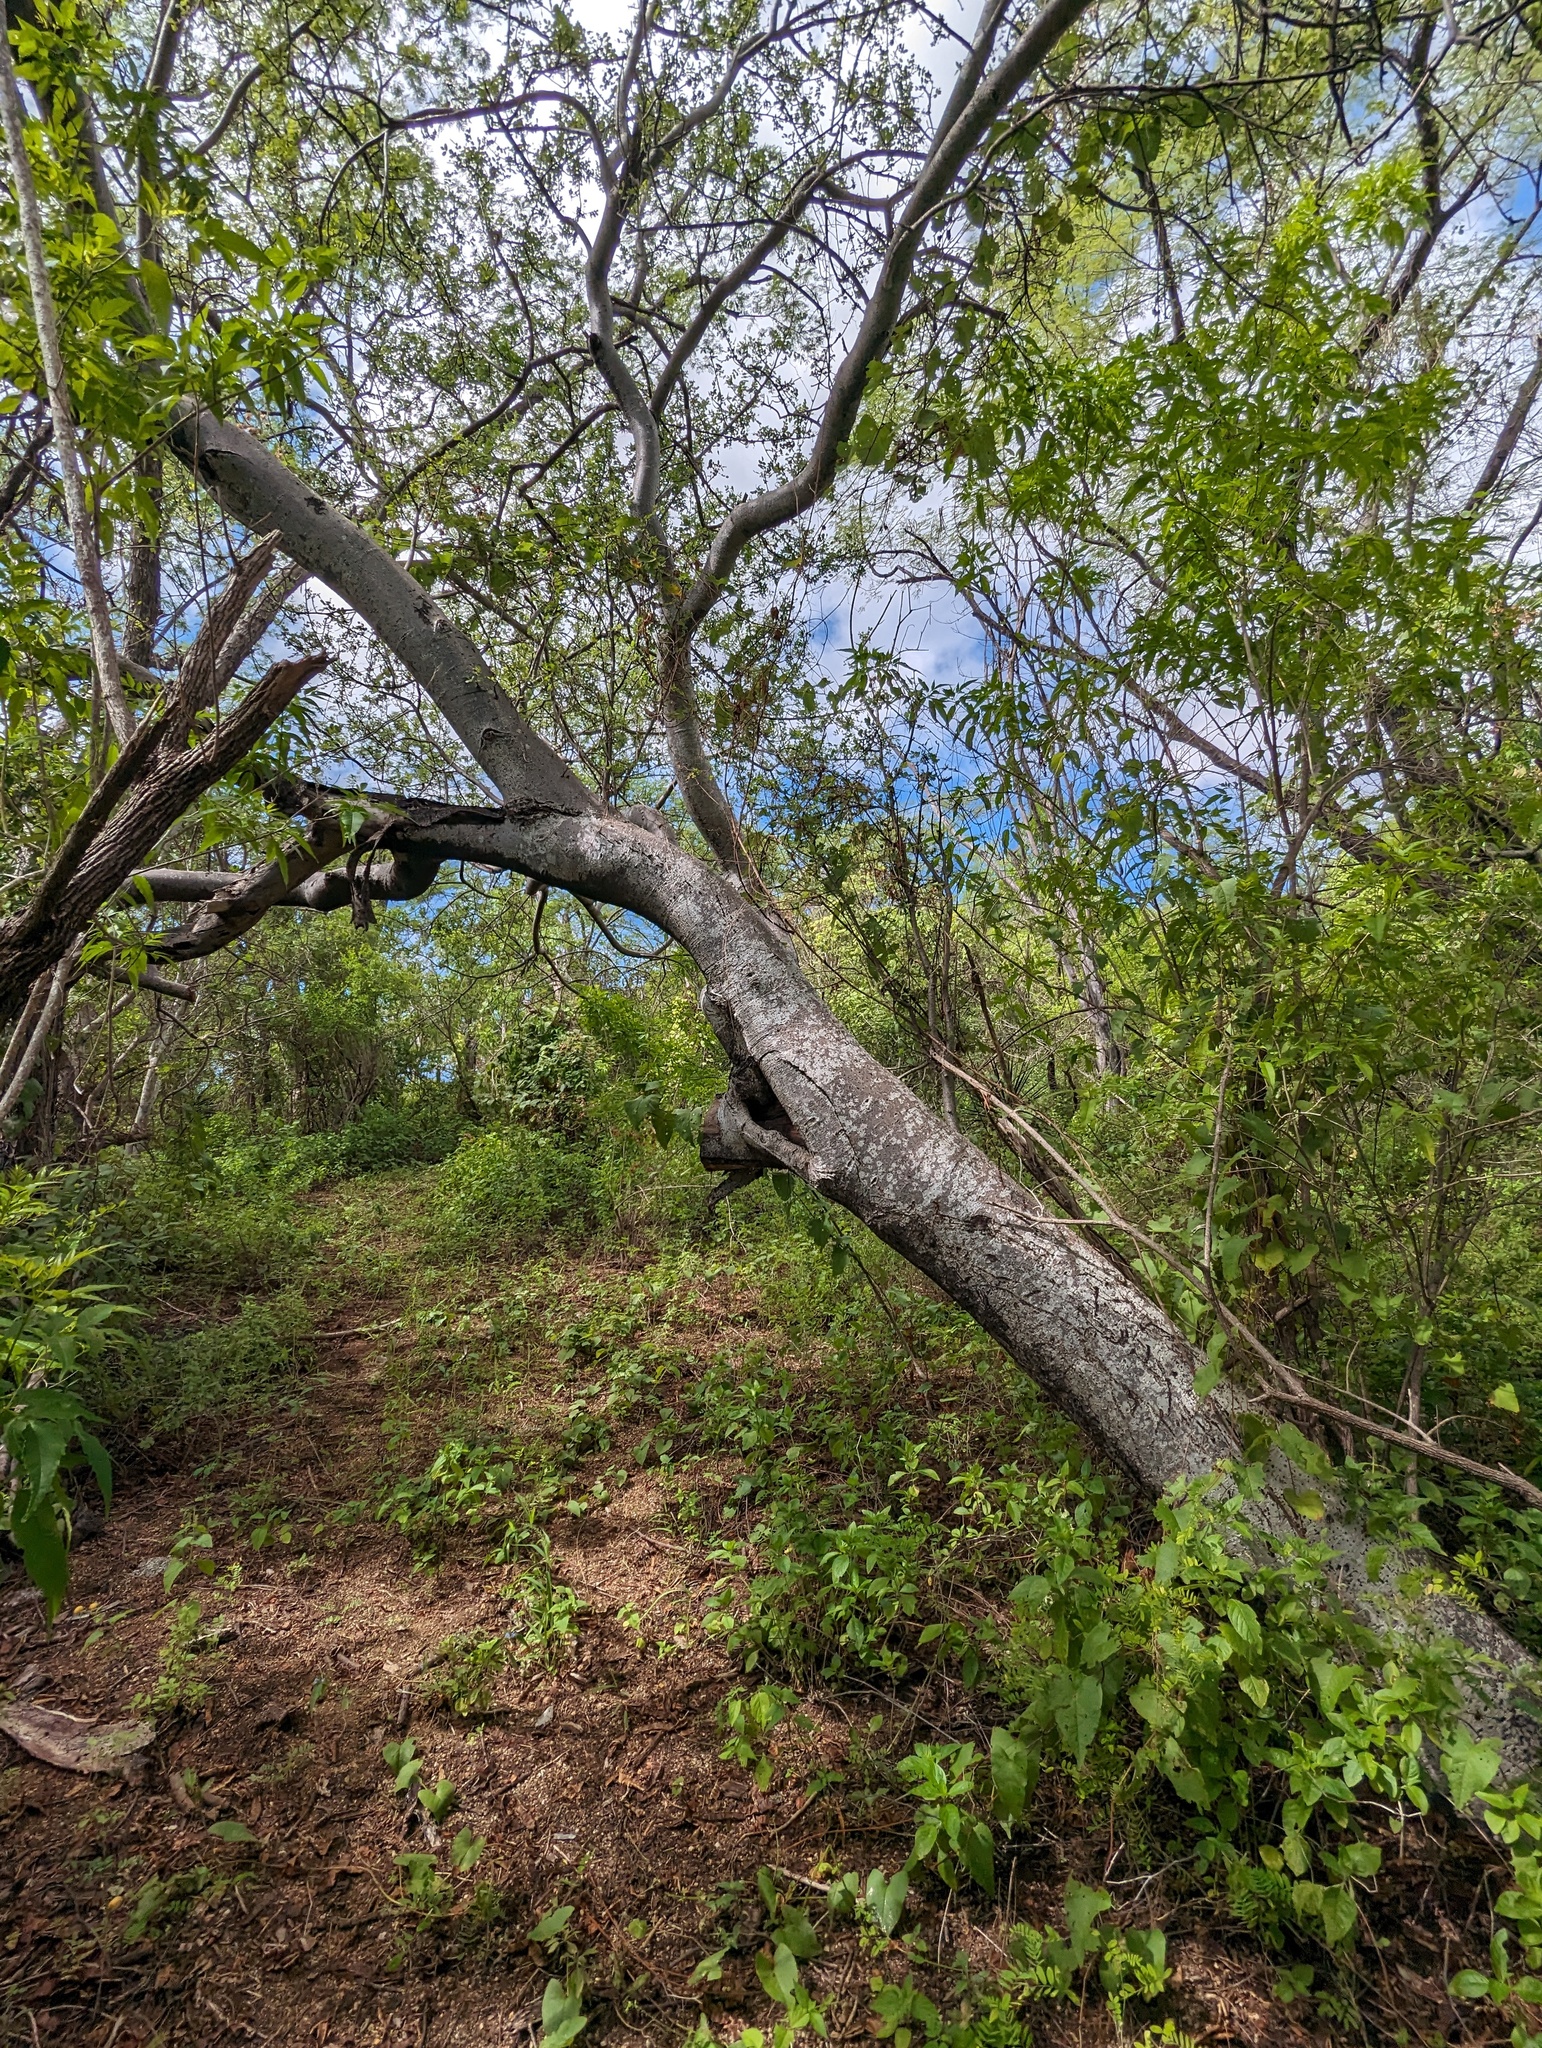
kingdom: Plantae
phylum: Tracheophyta
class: Magnoliopsida
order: Sapindales
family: Anacardiaceae
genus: Cyrtocarpa
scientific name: Cyrtocarpa edulis
